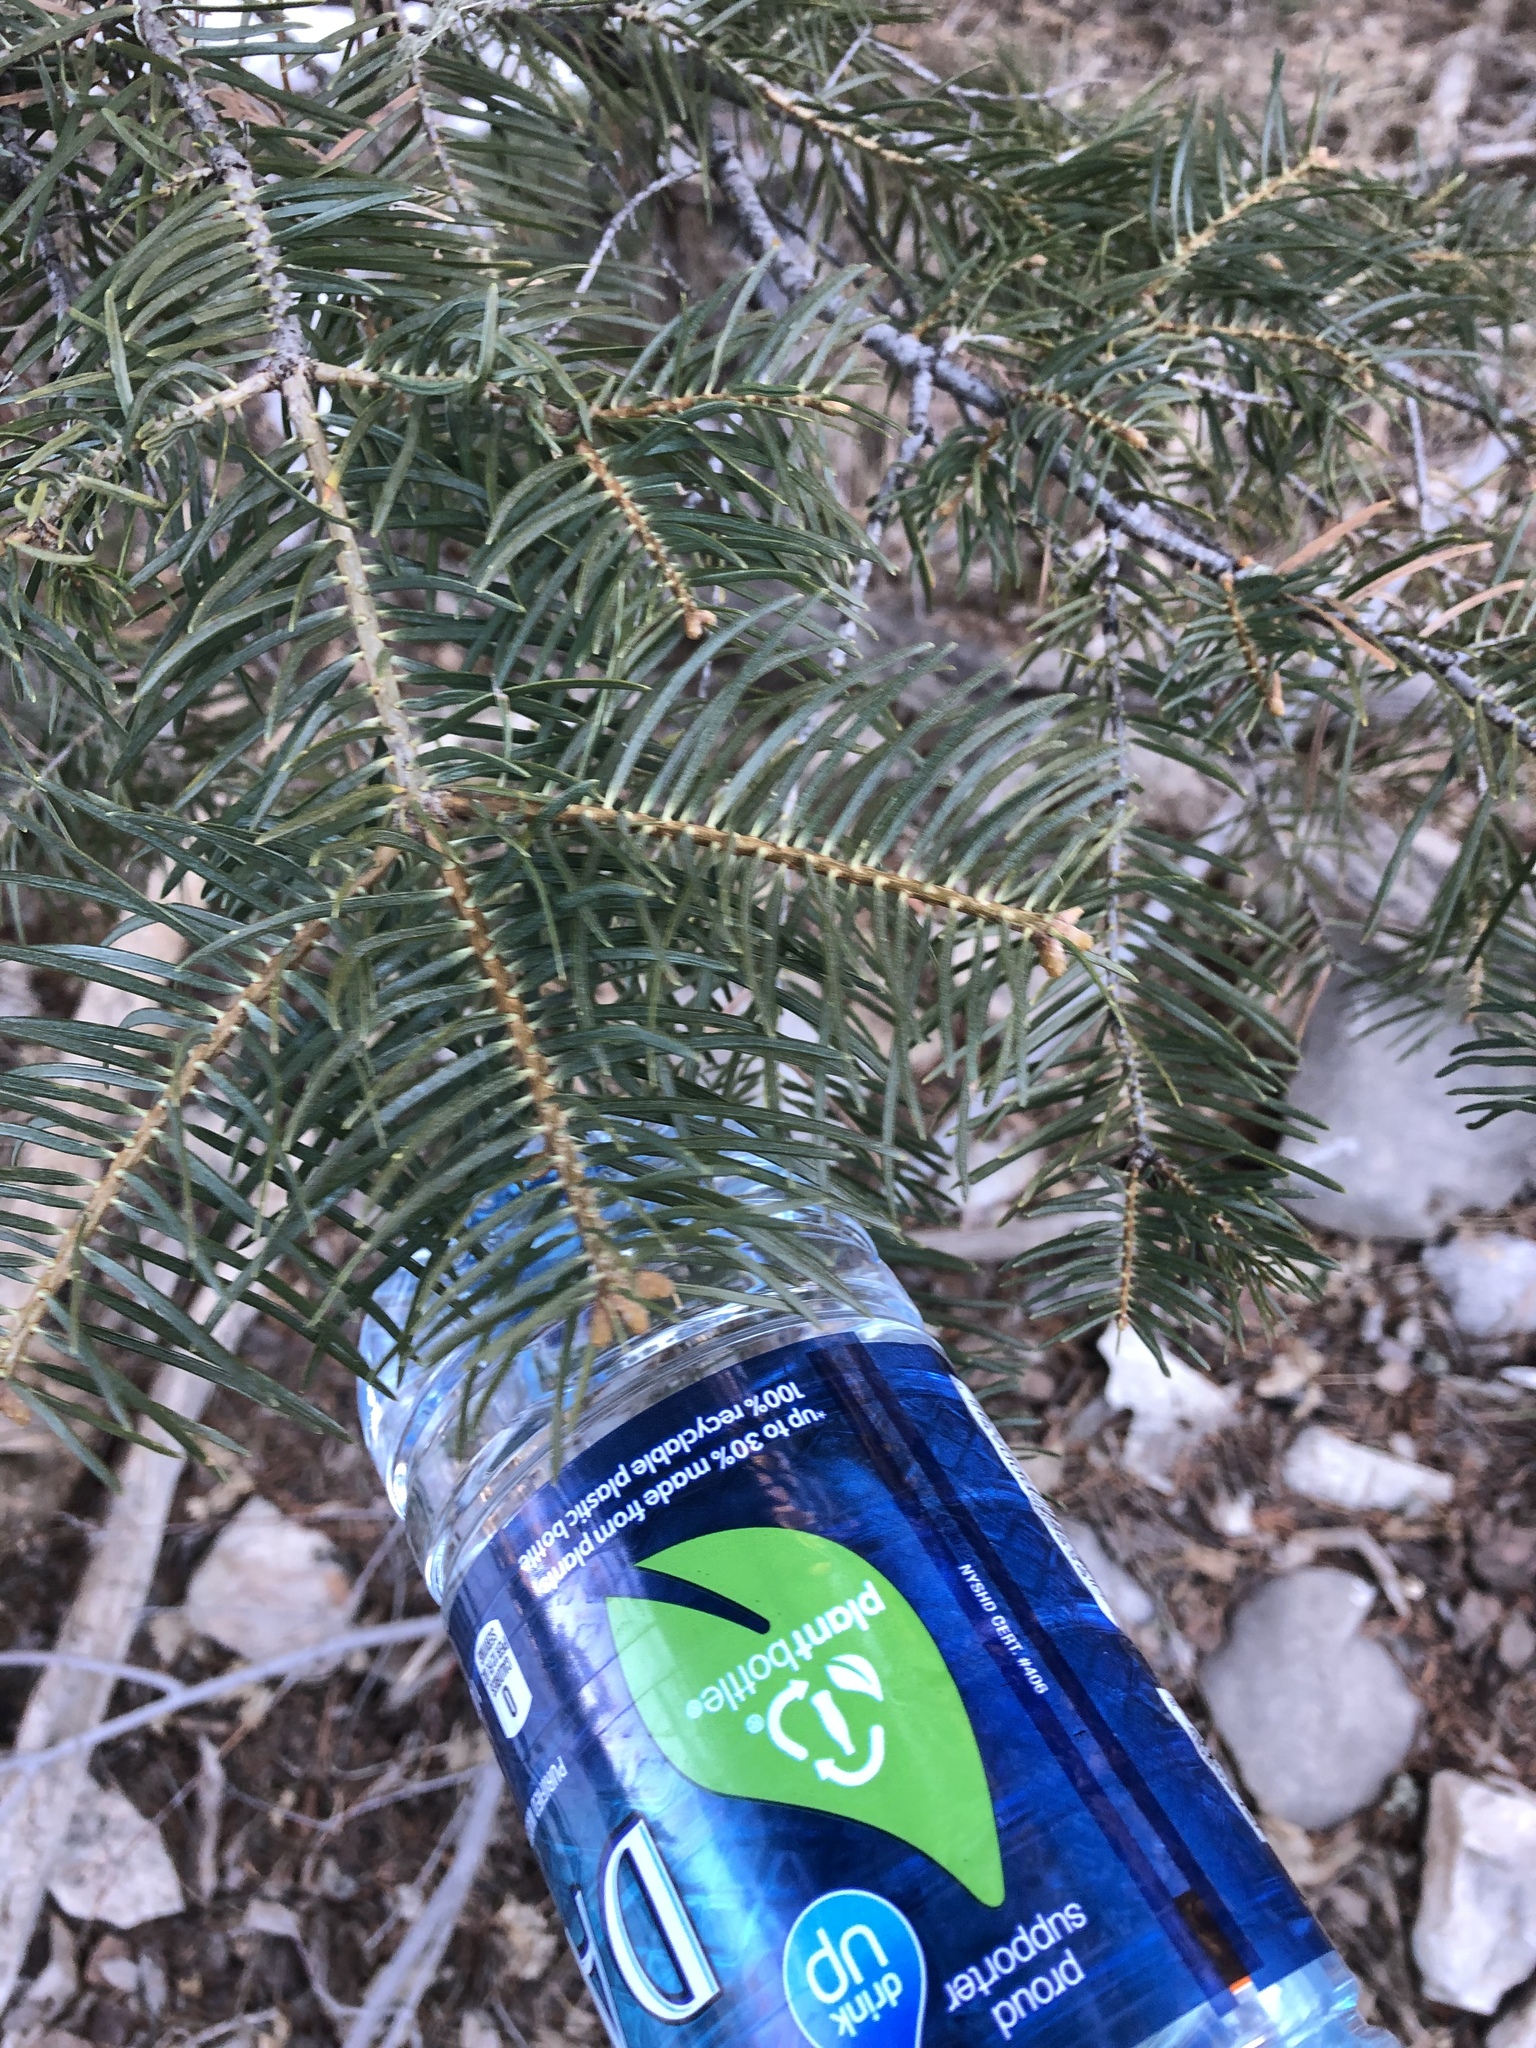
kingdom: Plantae
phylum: Tracheophyta
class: Pinopsida
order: Pinales
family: Pinaceae
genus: Abies
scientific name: Abies concolor
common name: Colorado fir
